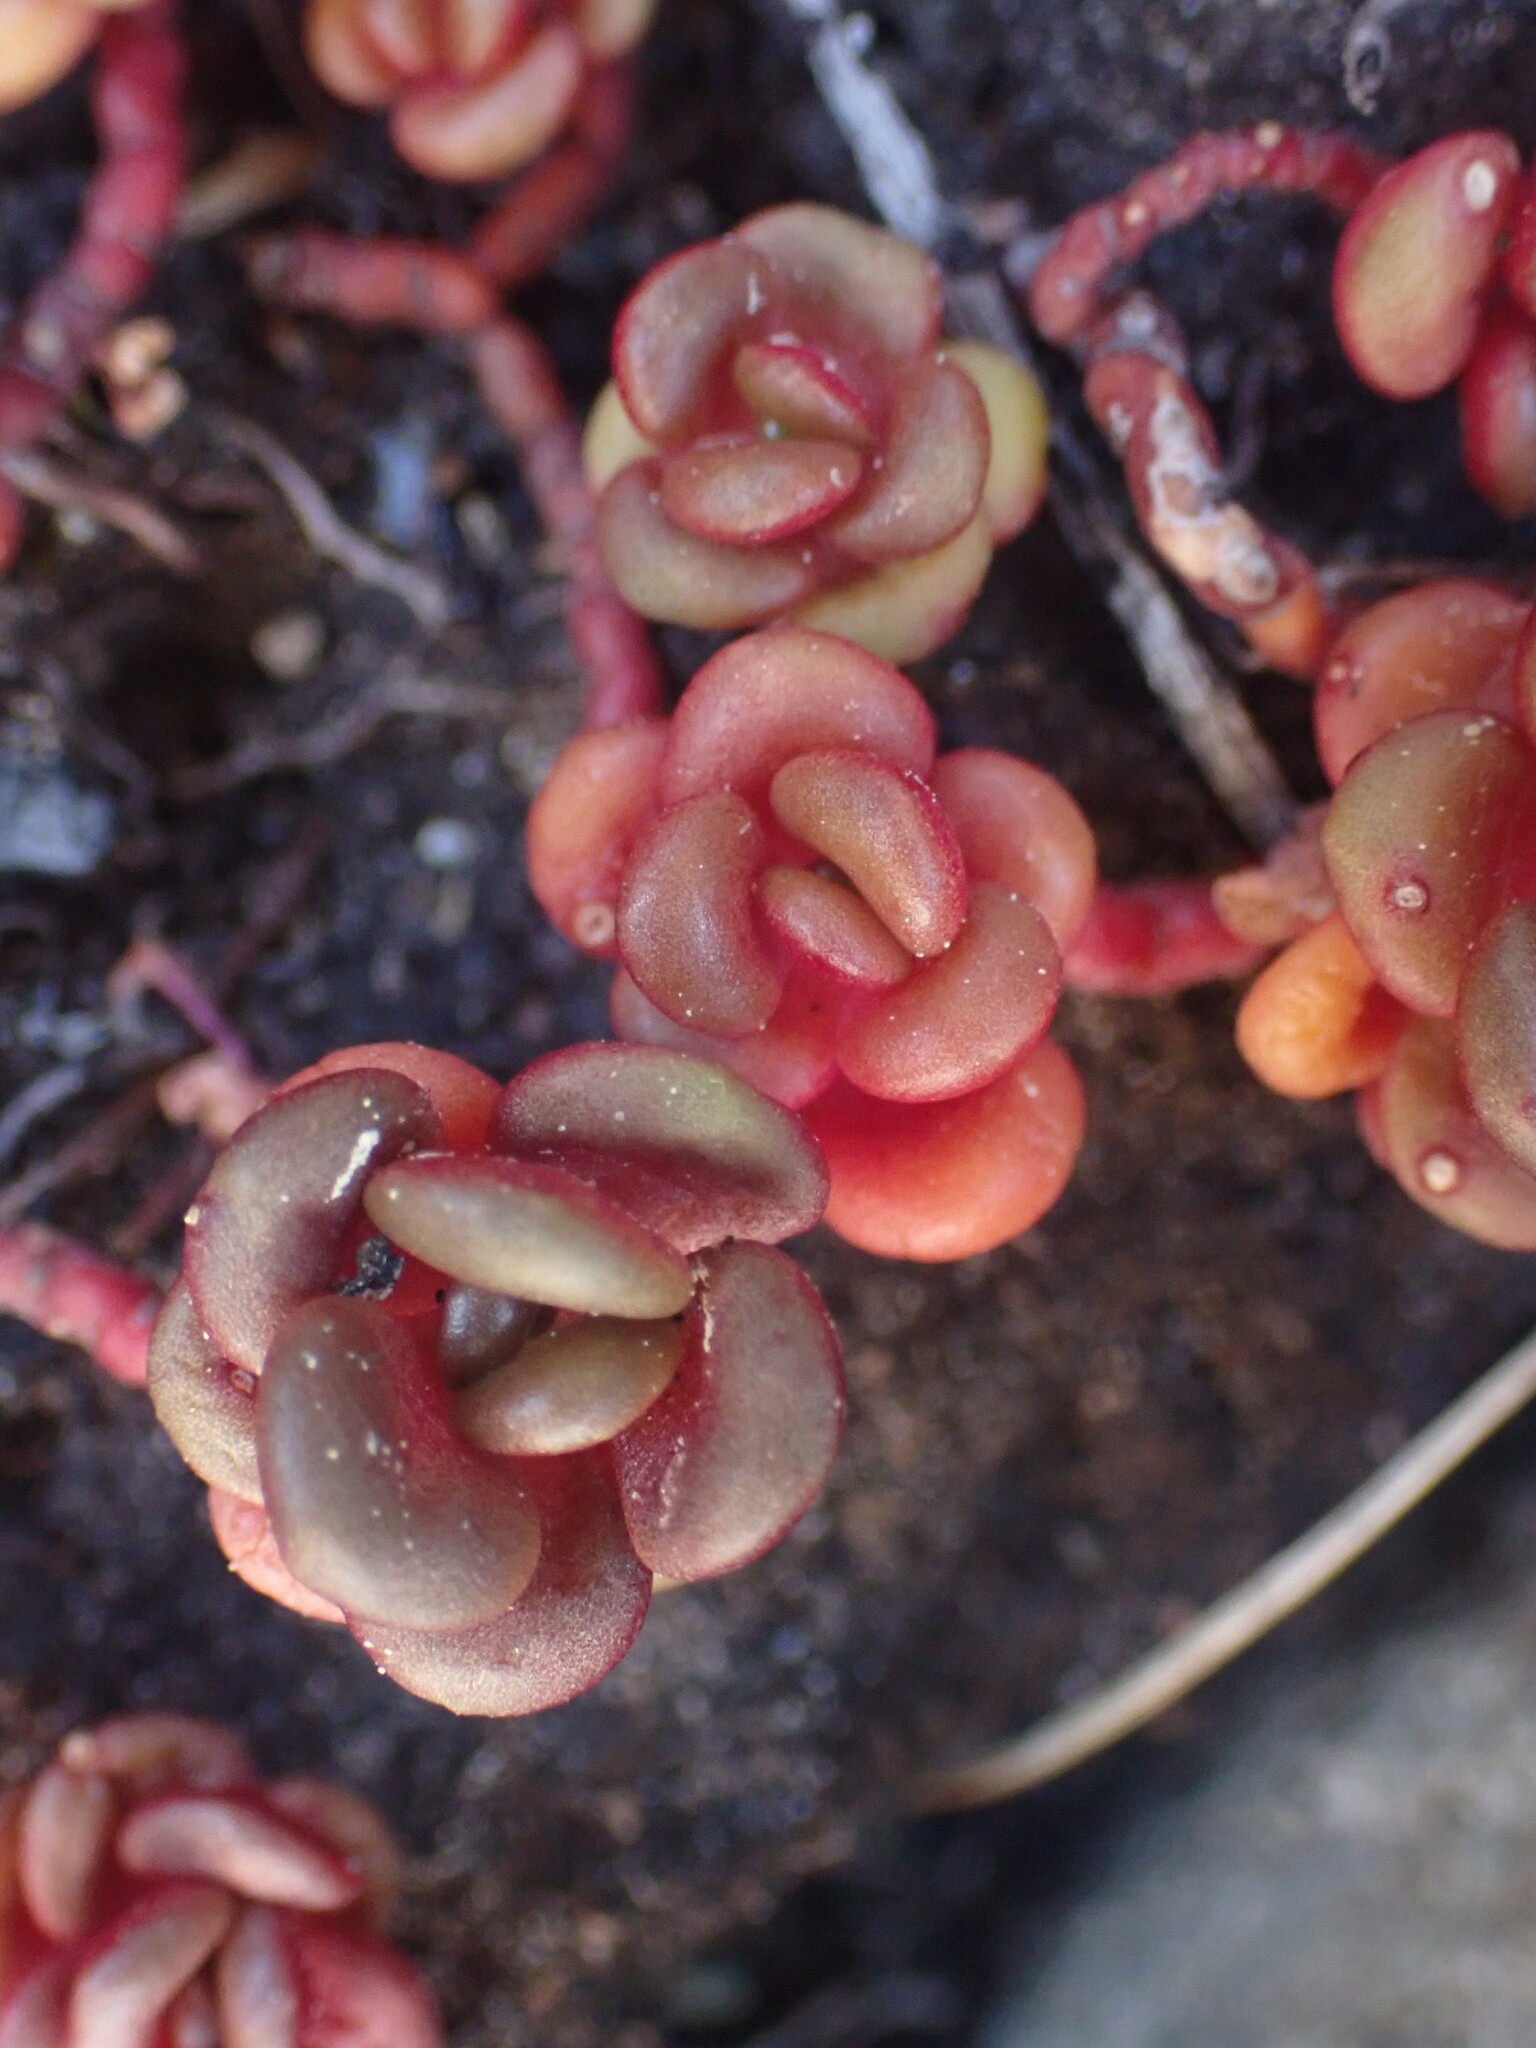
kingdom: Plantae
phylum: Tracheophyta
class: Magnoliopsida
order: Saxifragales
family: Crassulaceae
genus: Sedum
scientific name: Sedum oreganum
